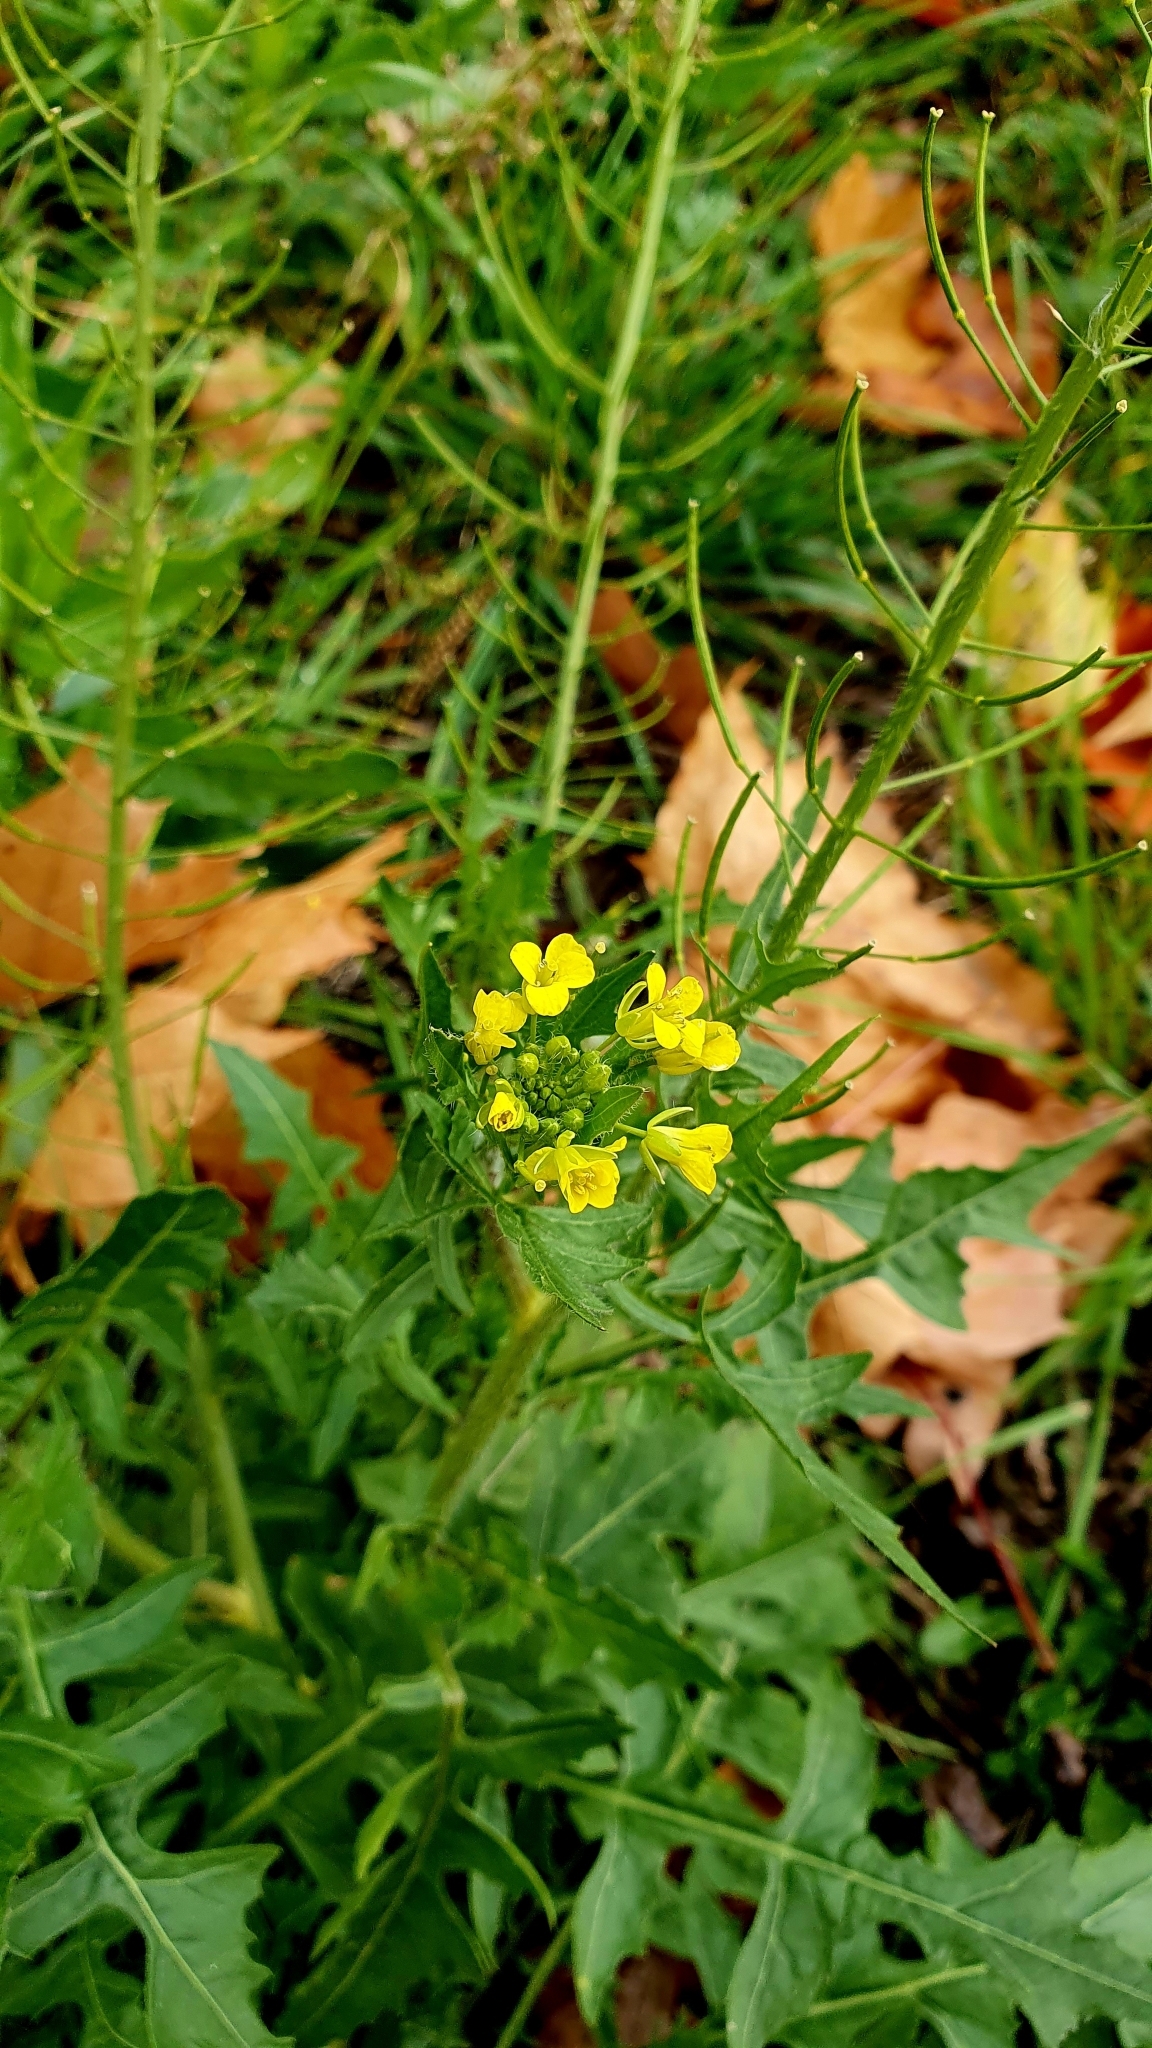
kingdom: Plantae
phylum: Tracheophyta
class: Magnoliopsida
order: Brassicales
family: Brassicaceae
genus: Sisymbrium
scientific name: Sisymbrium loeselii
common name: False london-rocket
